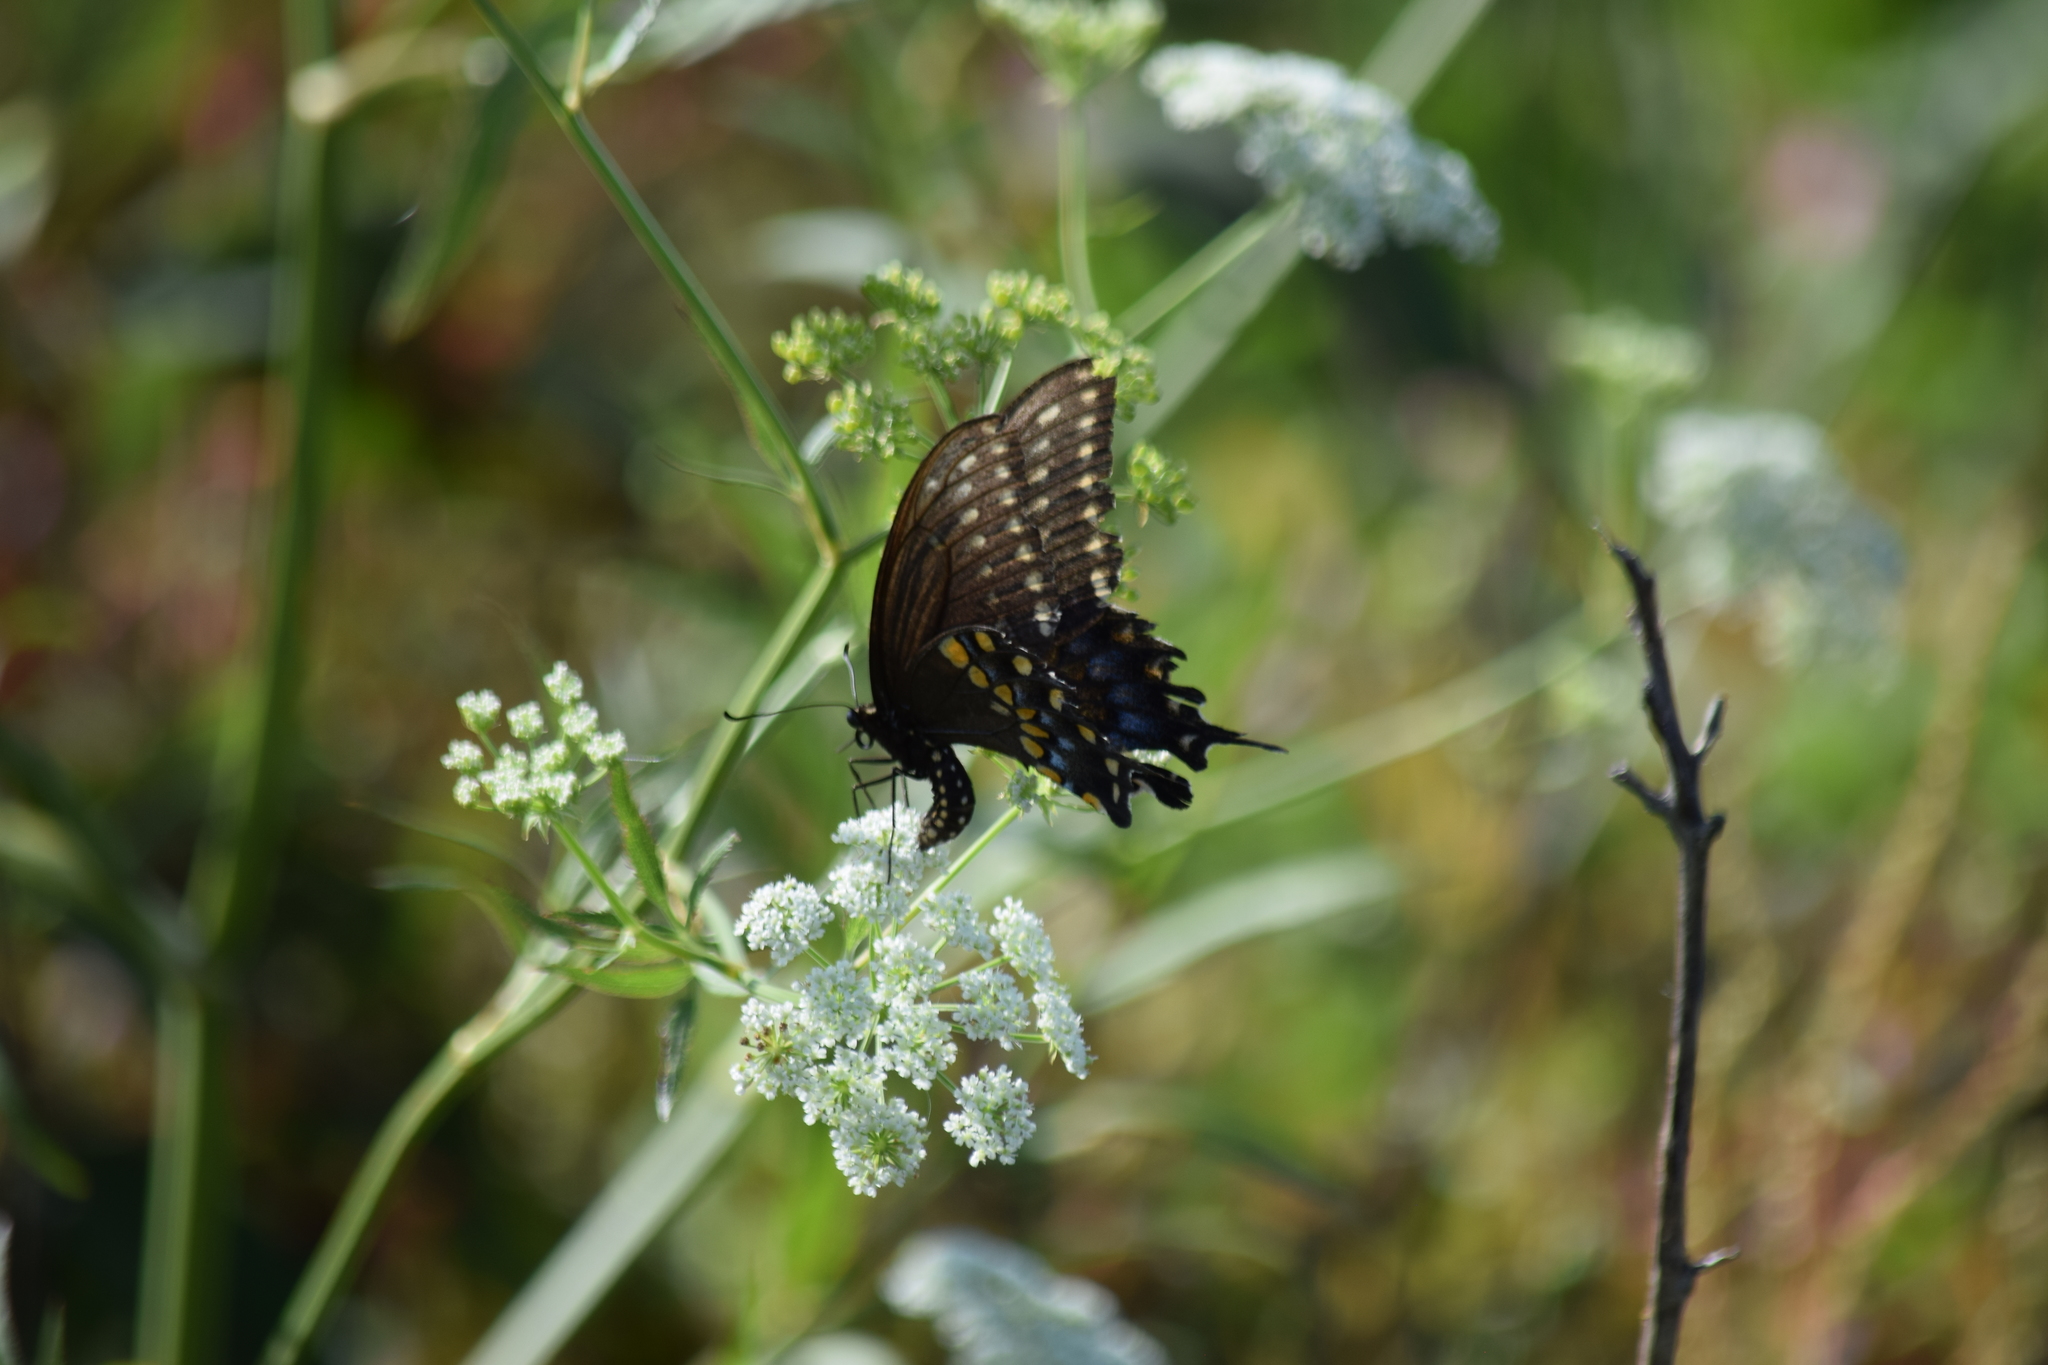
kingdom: Animalia
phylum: Arthropoda
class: Insecta
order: Lepidoptera
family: Papilionidae
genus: Papilio
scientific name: Papilio polyxenes
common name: Black swallowtail
